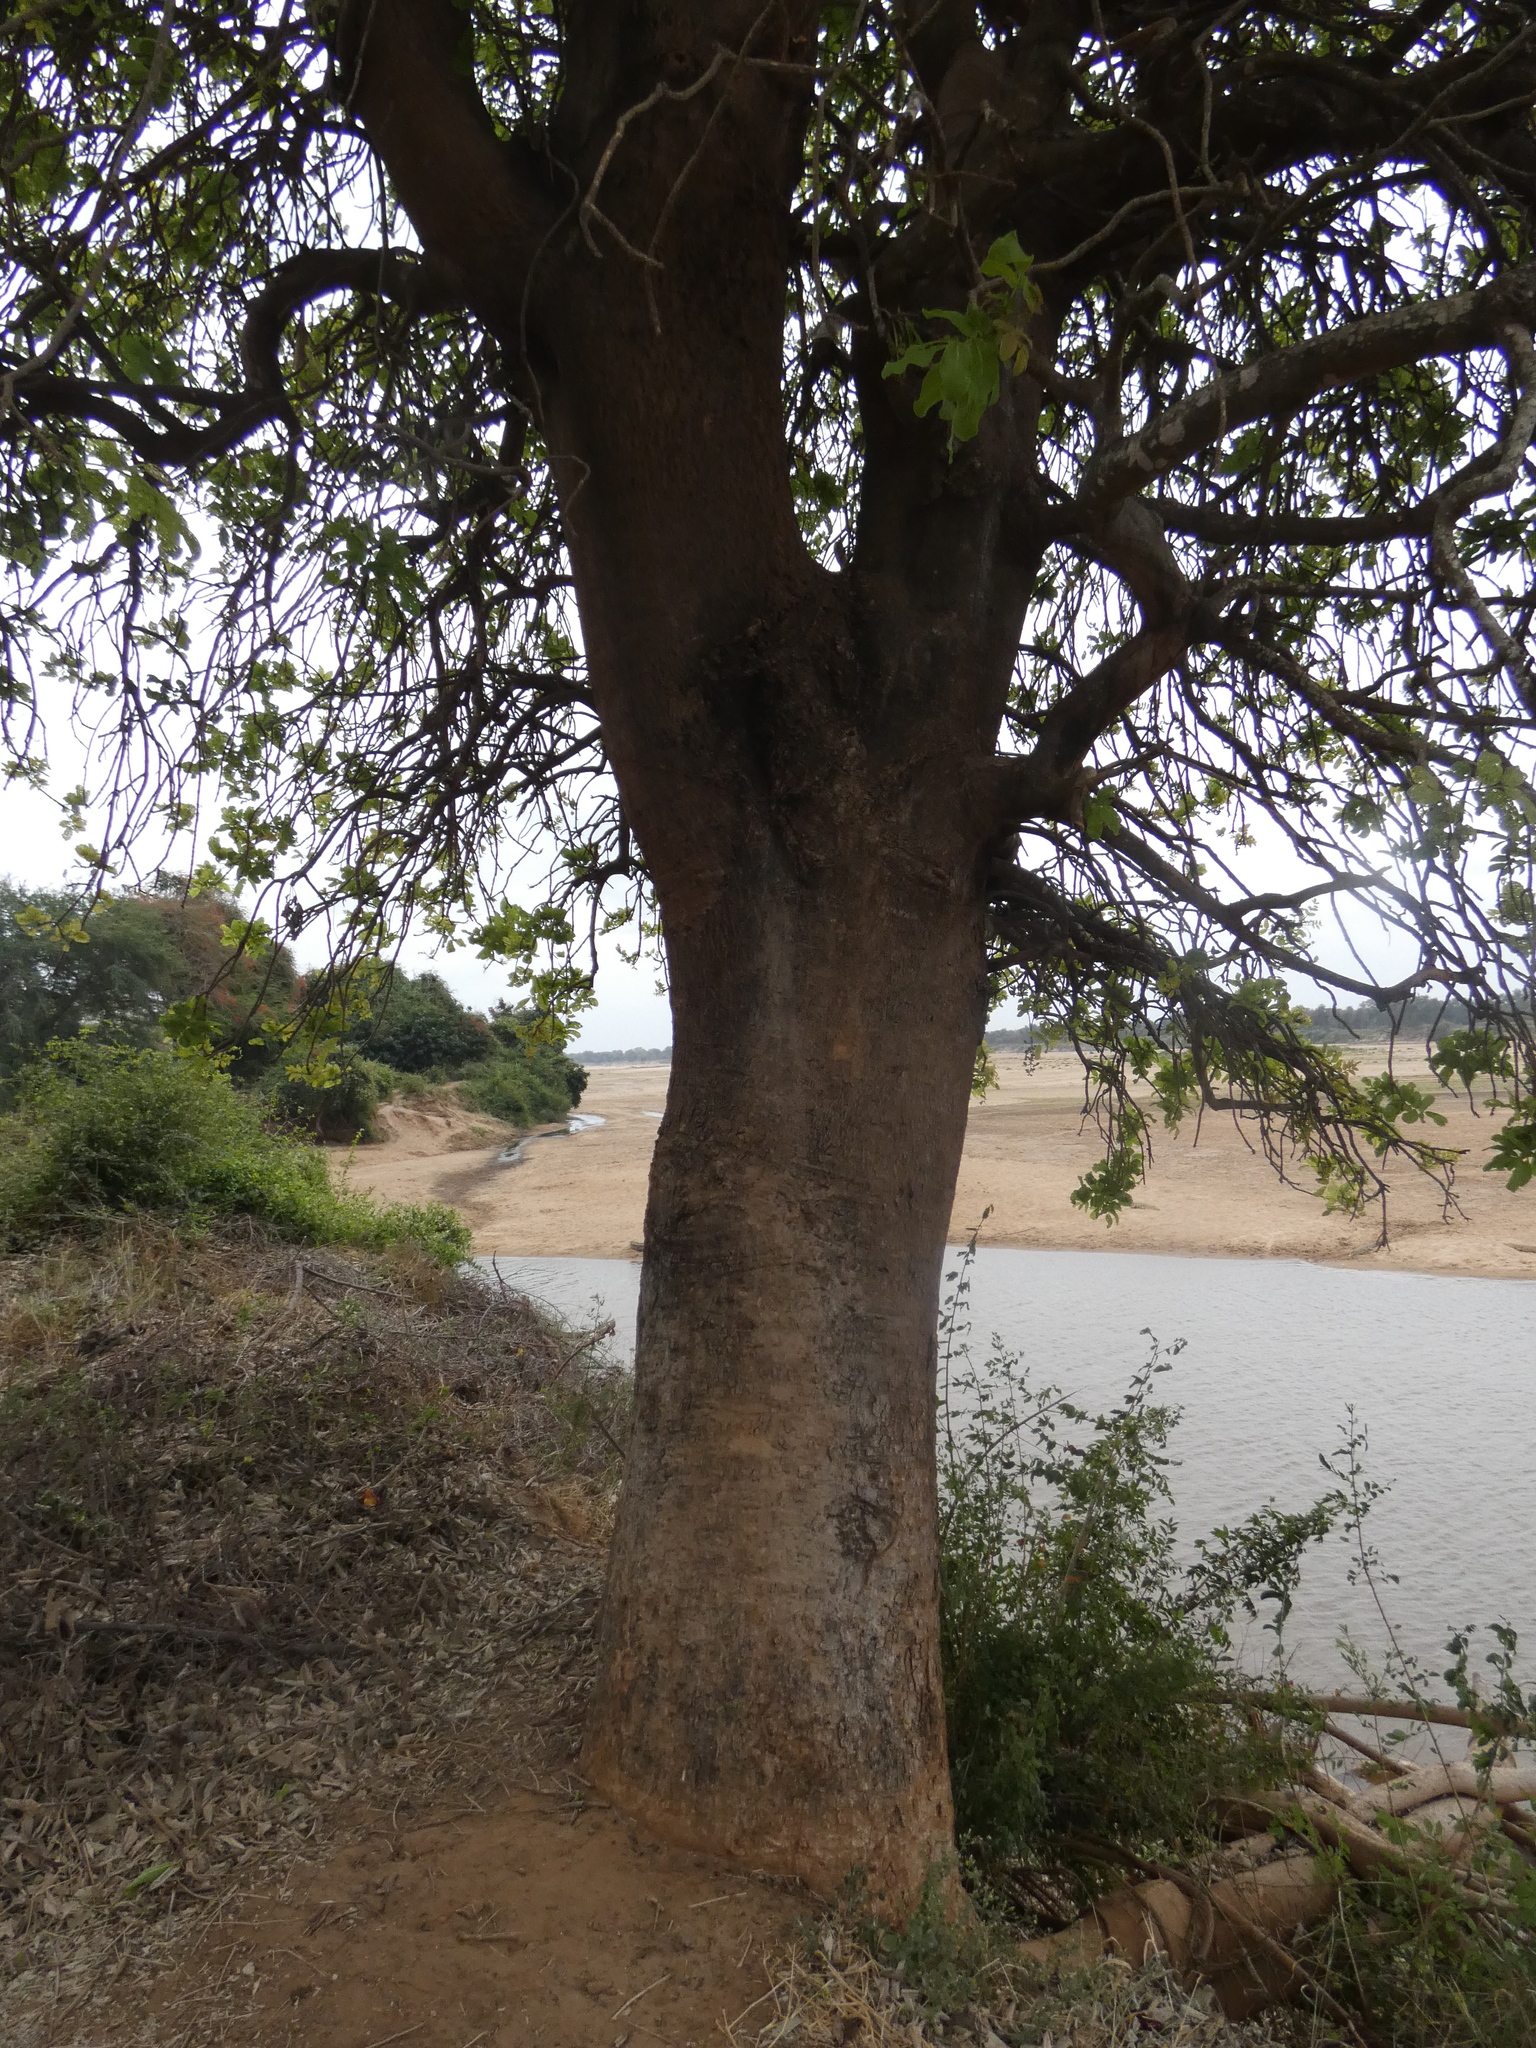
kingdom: Plantae
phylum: Tracheophyta
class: Magnoliopsida
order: Lamiales
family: Bignoniaceae
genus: Kigelia
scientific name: Kigelia africana
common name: Sausage tree
